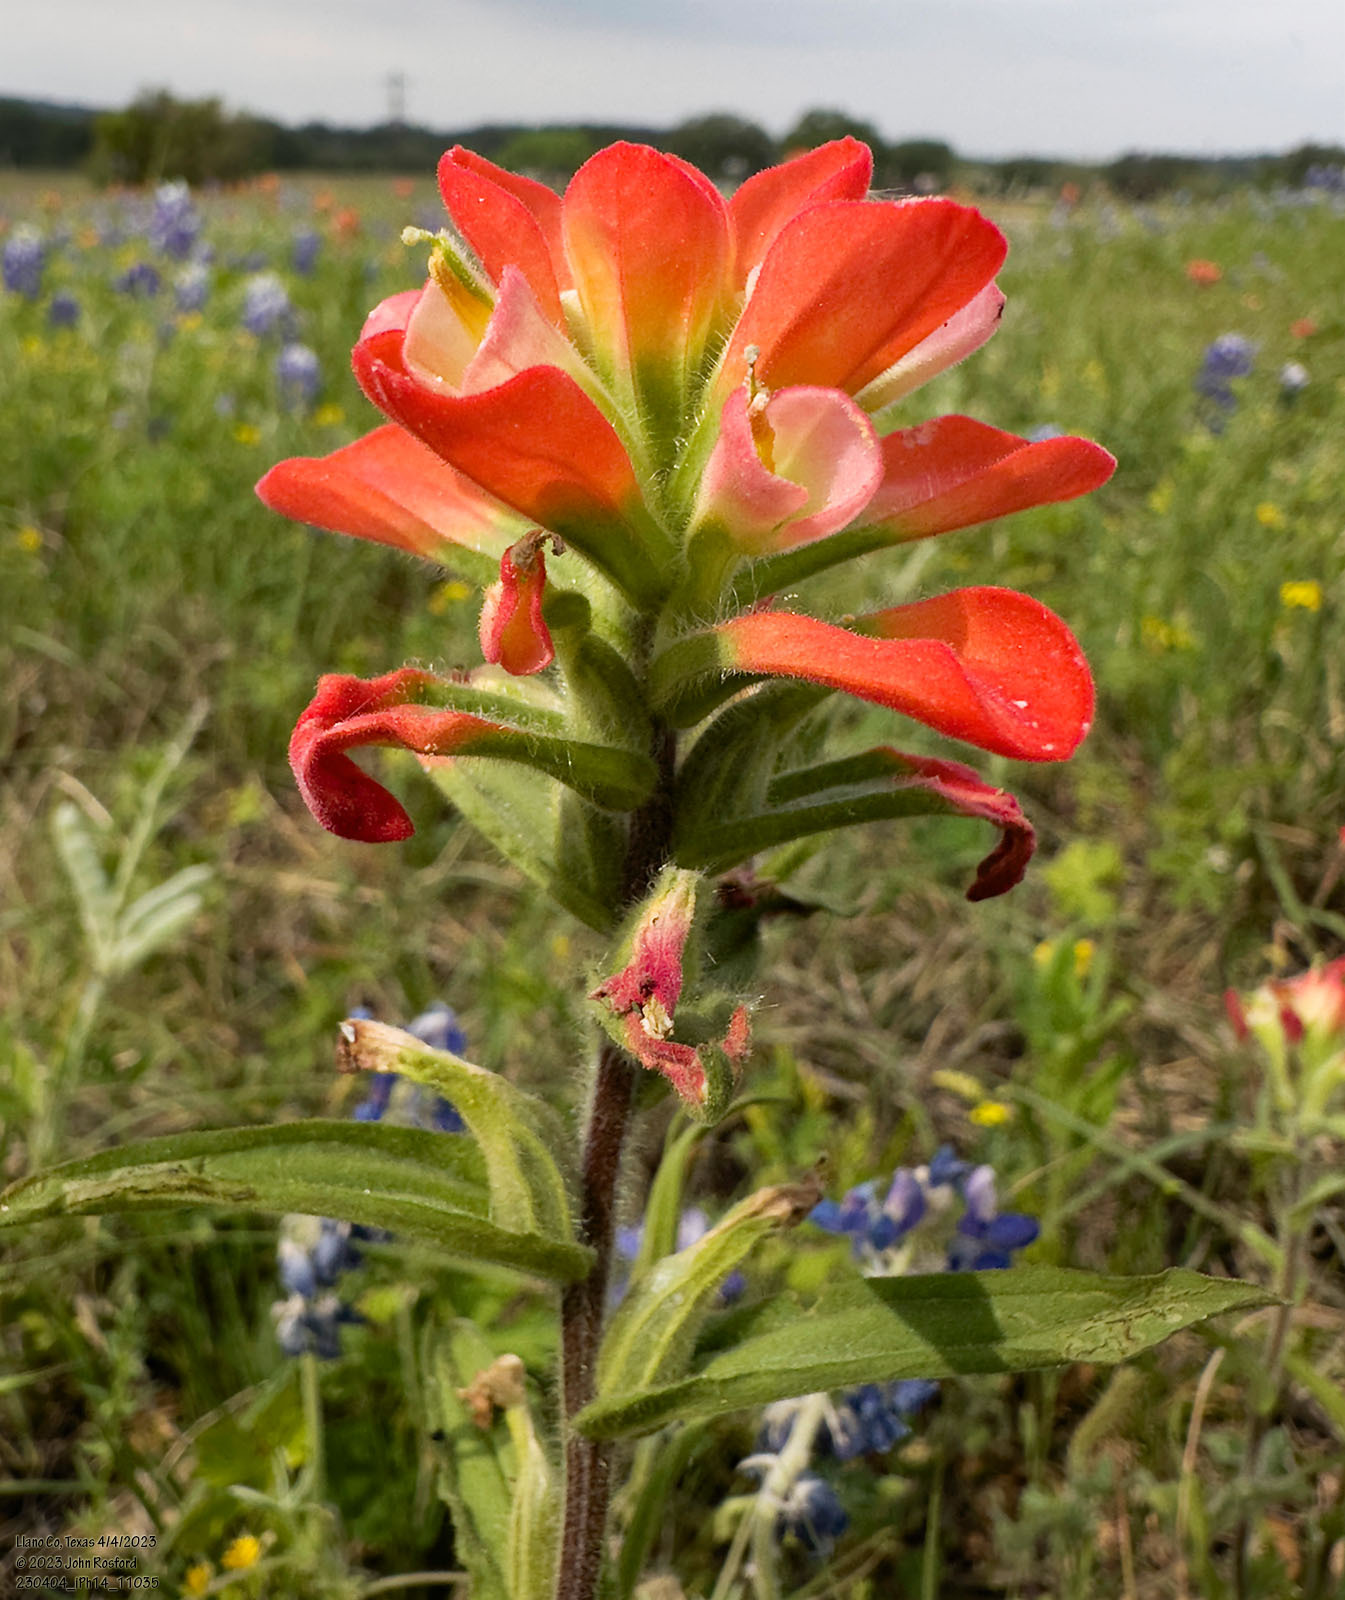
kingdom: Plantae
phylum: Tracheophyta
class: Magnoliopsida
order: Lamiales
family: Orobanchaceae
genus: Castilleja
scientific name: Castilleja indivisa
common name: Texas paintbrush
